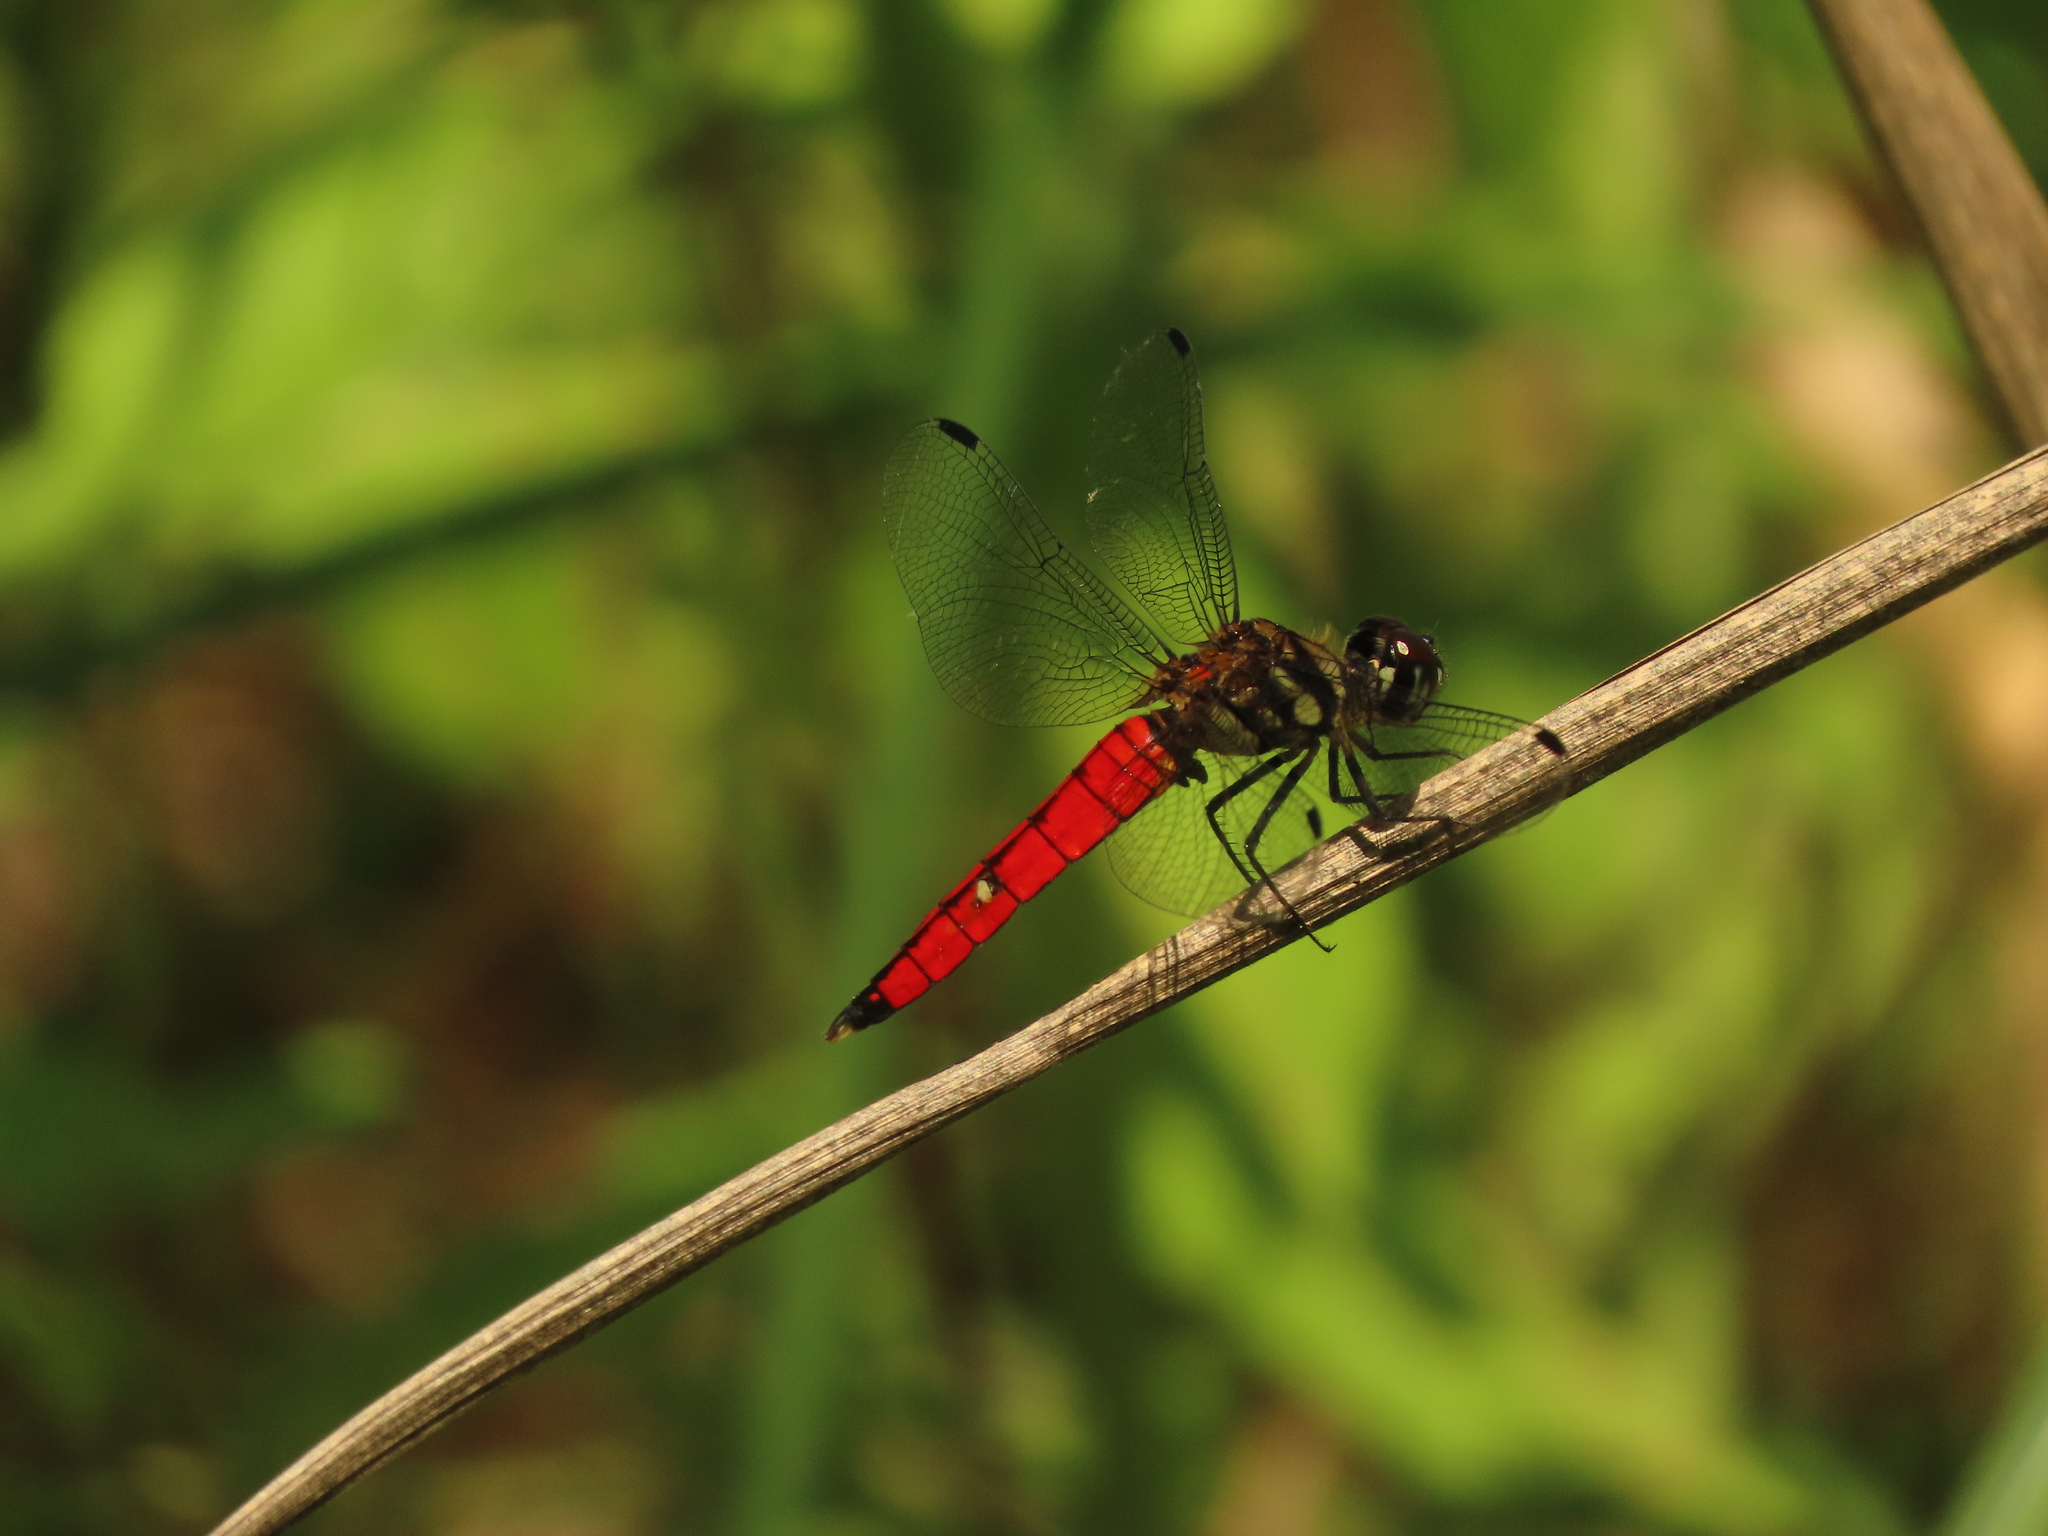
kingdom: Animalia
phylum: Arthropoda
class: Insecta
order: Odonata
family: Libellulidae
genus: Lyriothemis
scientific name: Lyriothemis elegantissima
